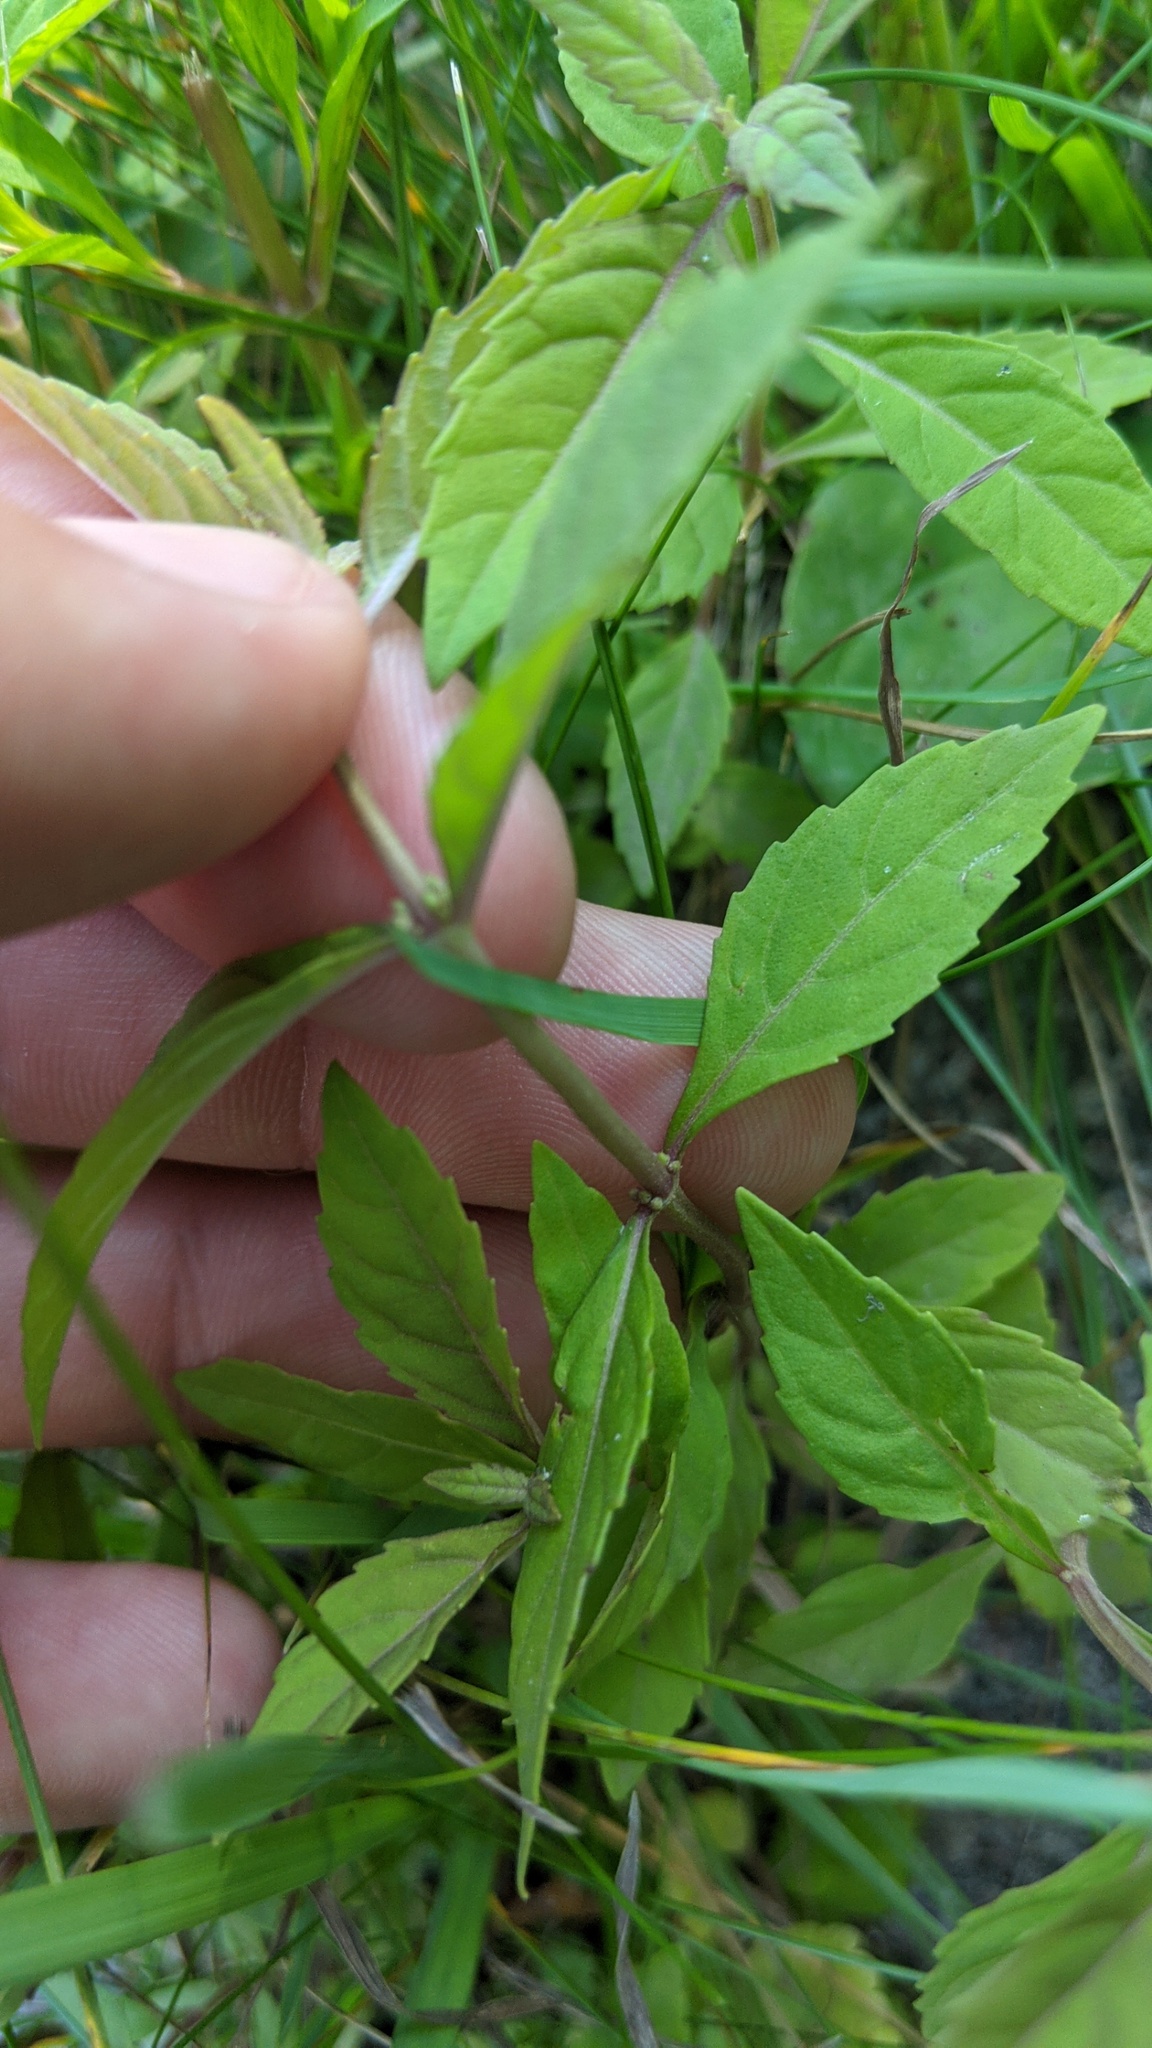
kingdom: Plantae
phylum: Tracheophyta
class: Magnoliopsida
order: Lamiales
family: Lamiaceae
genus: Lycopus
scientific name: Lycopus uniflorus
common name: Northern bugleweed
